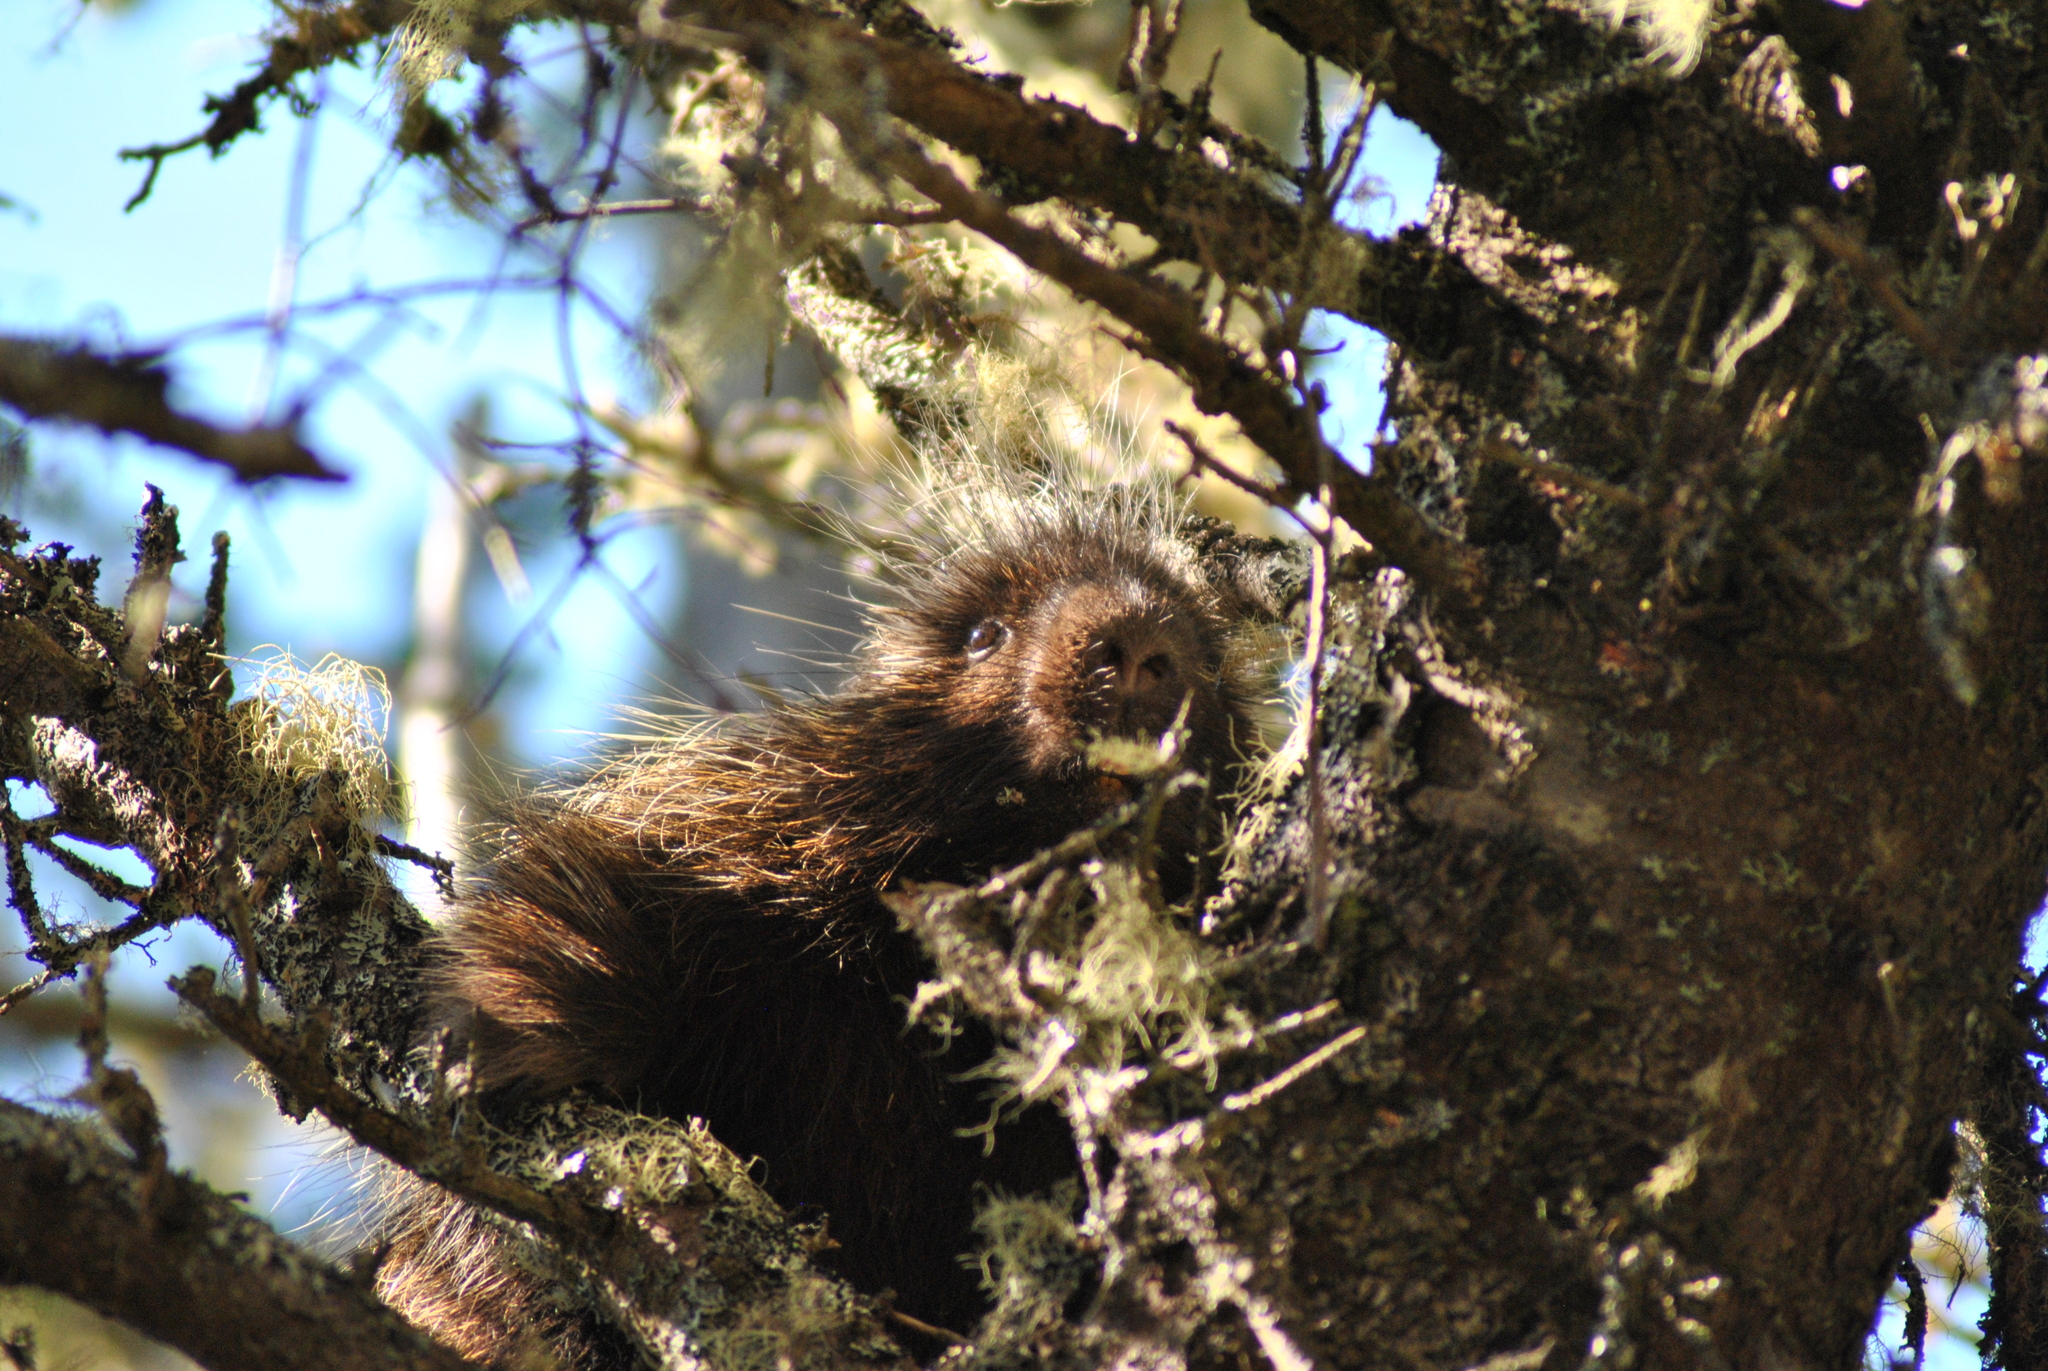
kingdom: Animalia
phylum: Chordata
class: Mammalia
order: Rodentia
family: Erethizontidae
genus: Erethizon
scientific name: Erethizon dorsatus
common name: North american porcupine
